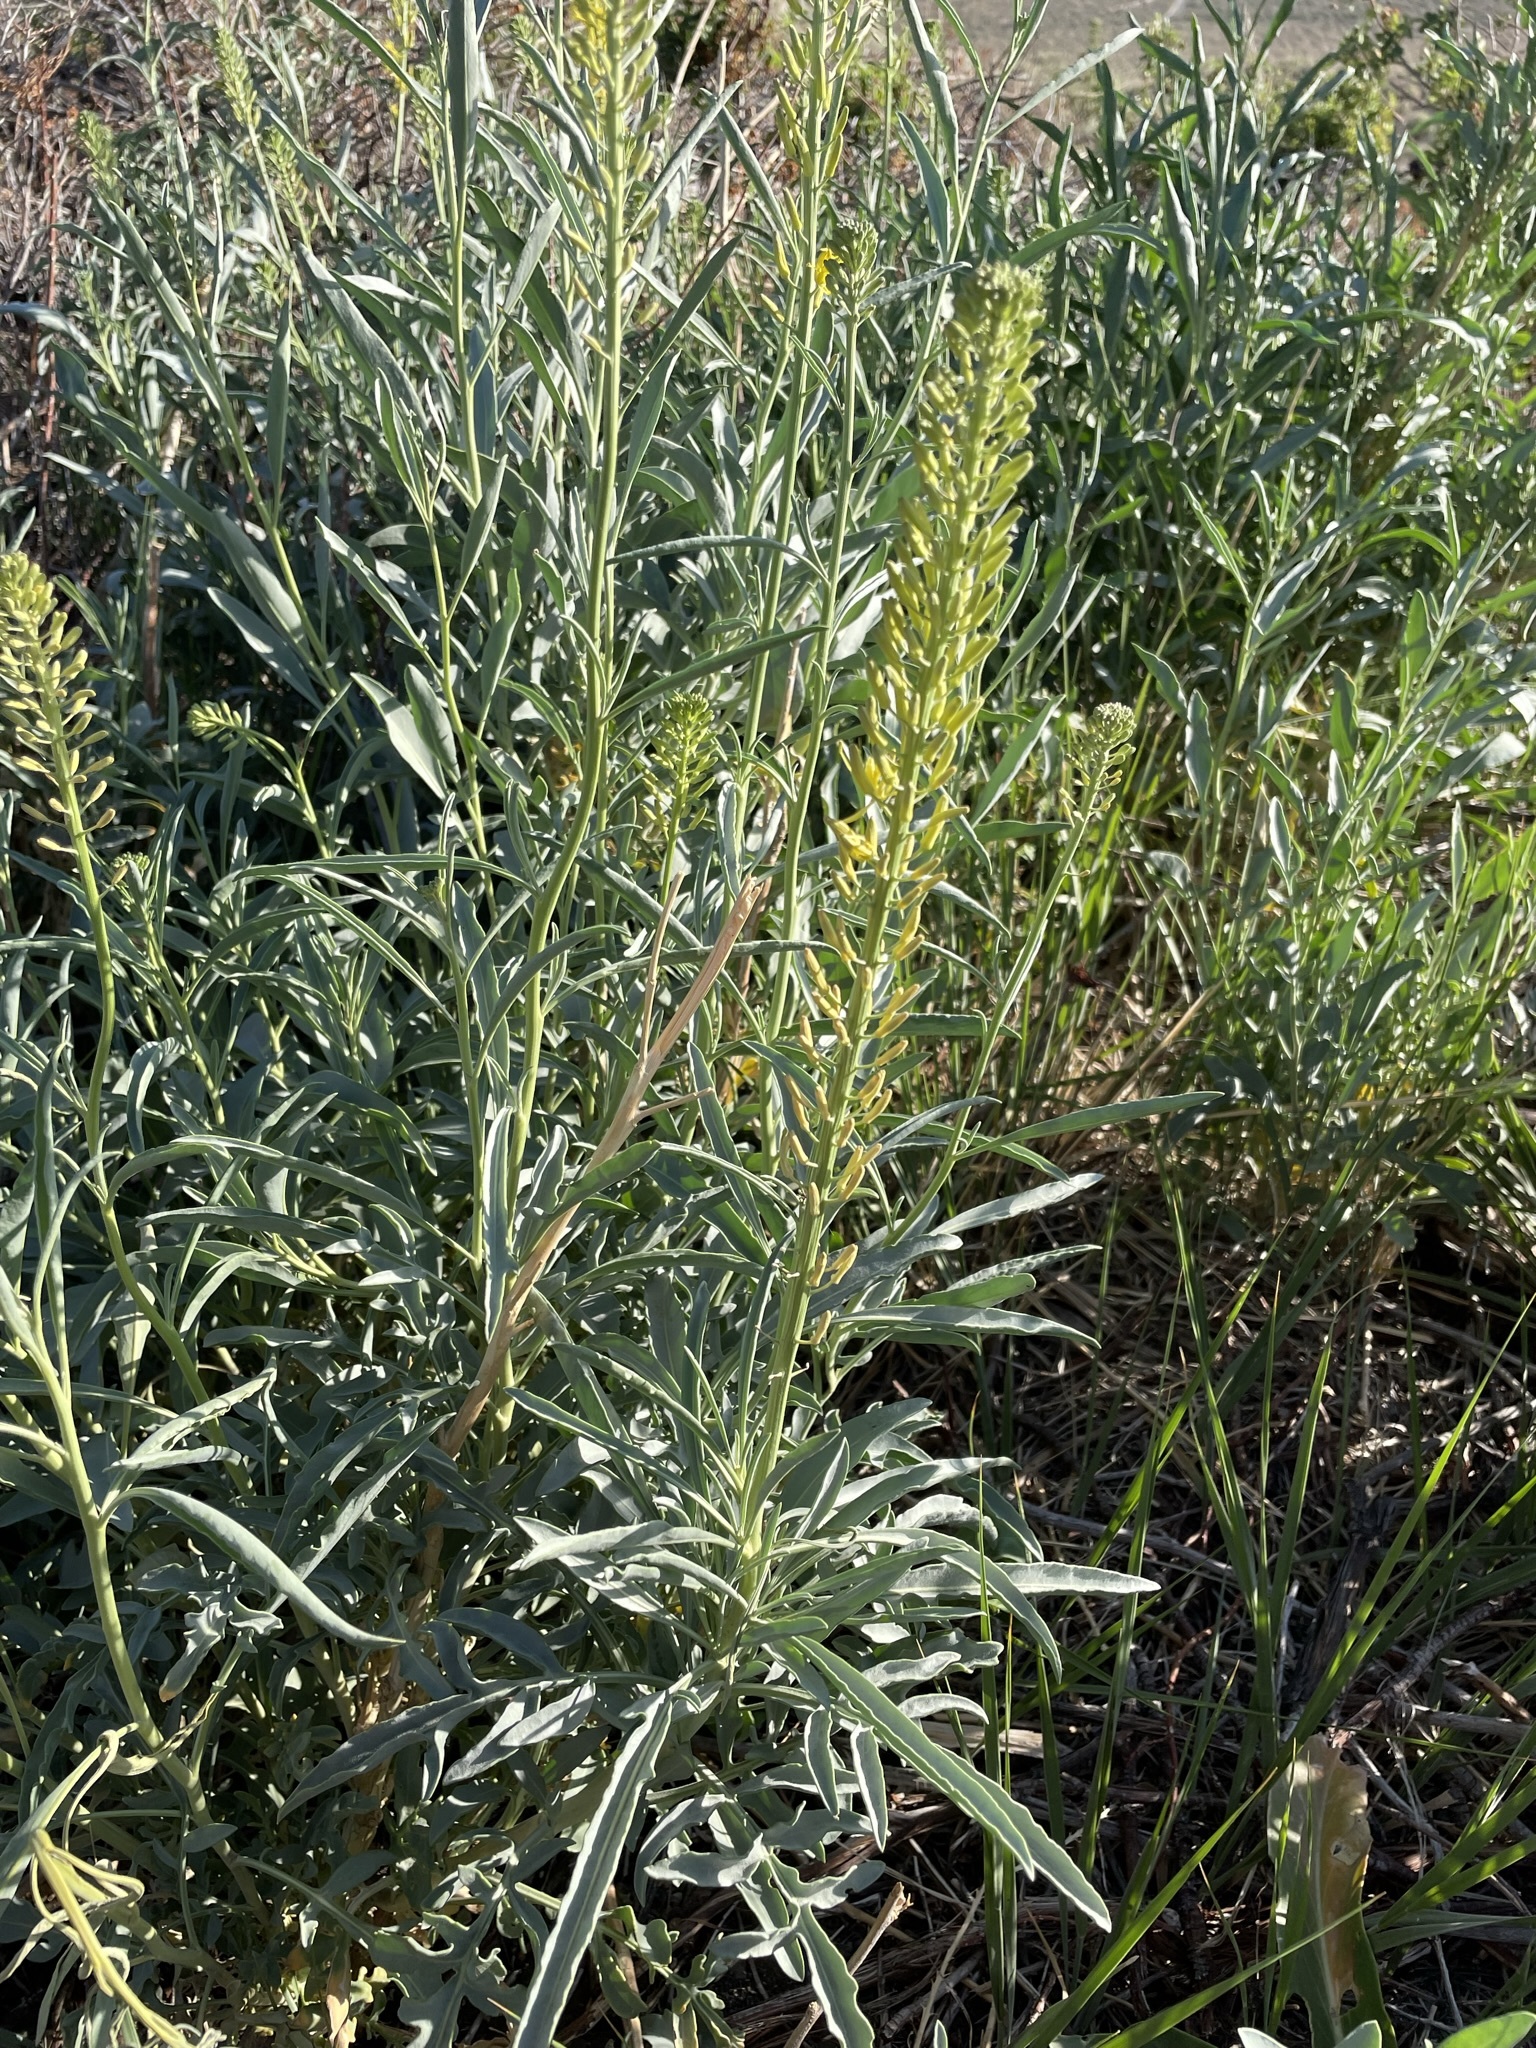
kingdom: Plantae
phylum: Tracheophyta
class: Magnoliopsida
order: Brassicales
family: Brassicaceae
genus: Stanleya
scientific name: Stanleya pinnata
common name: Prince's-plume
